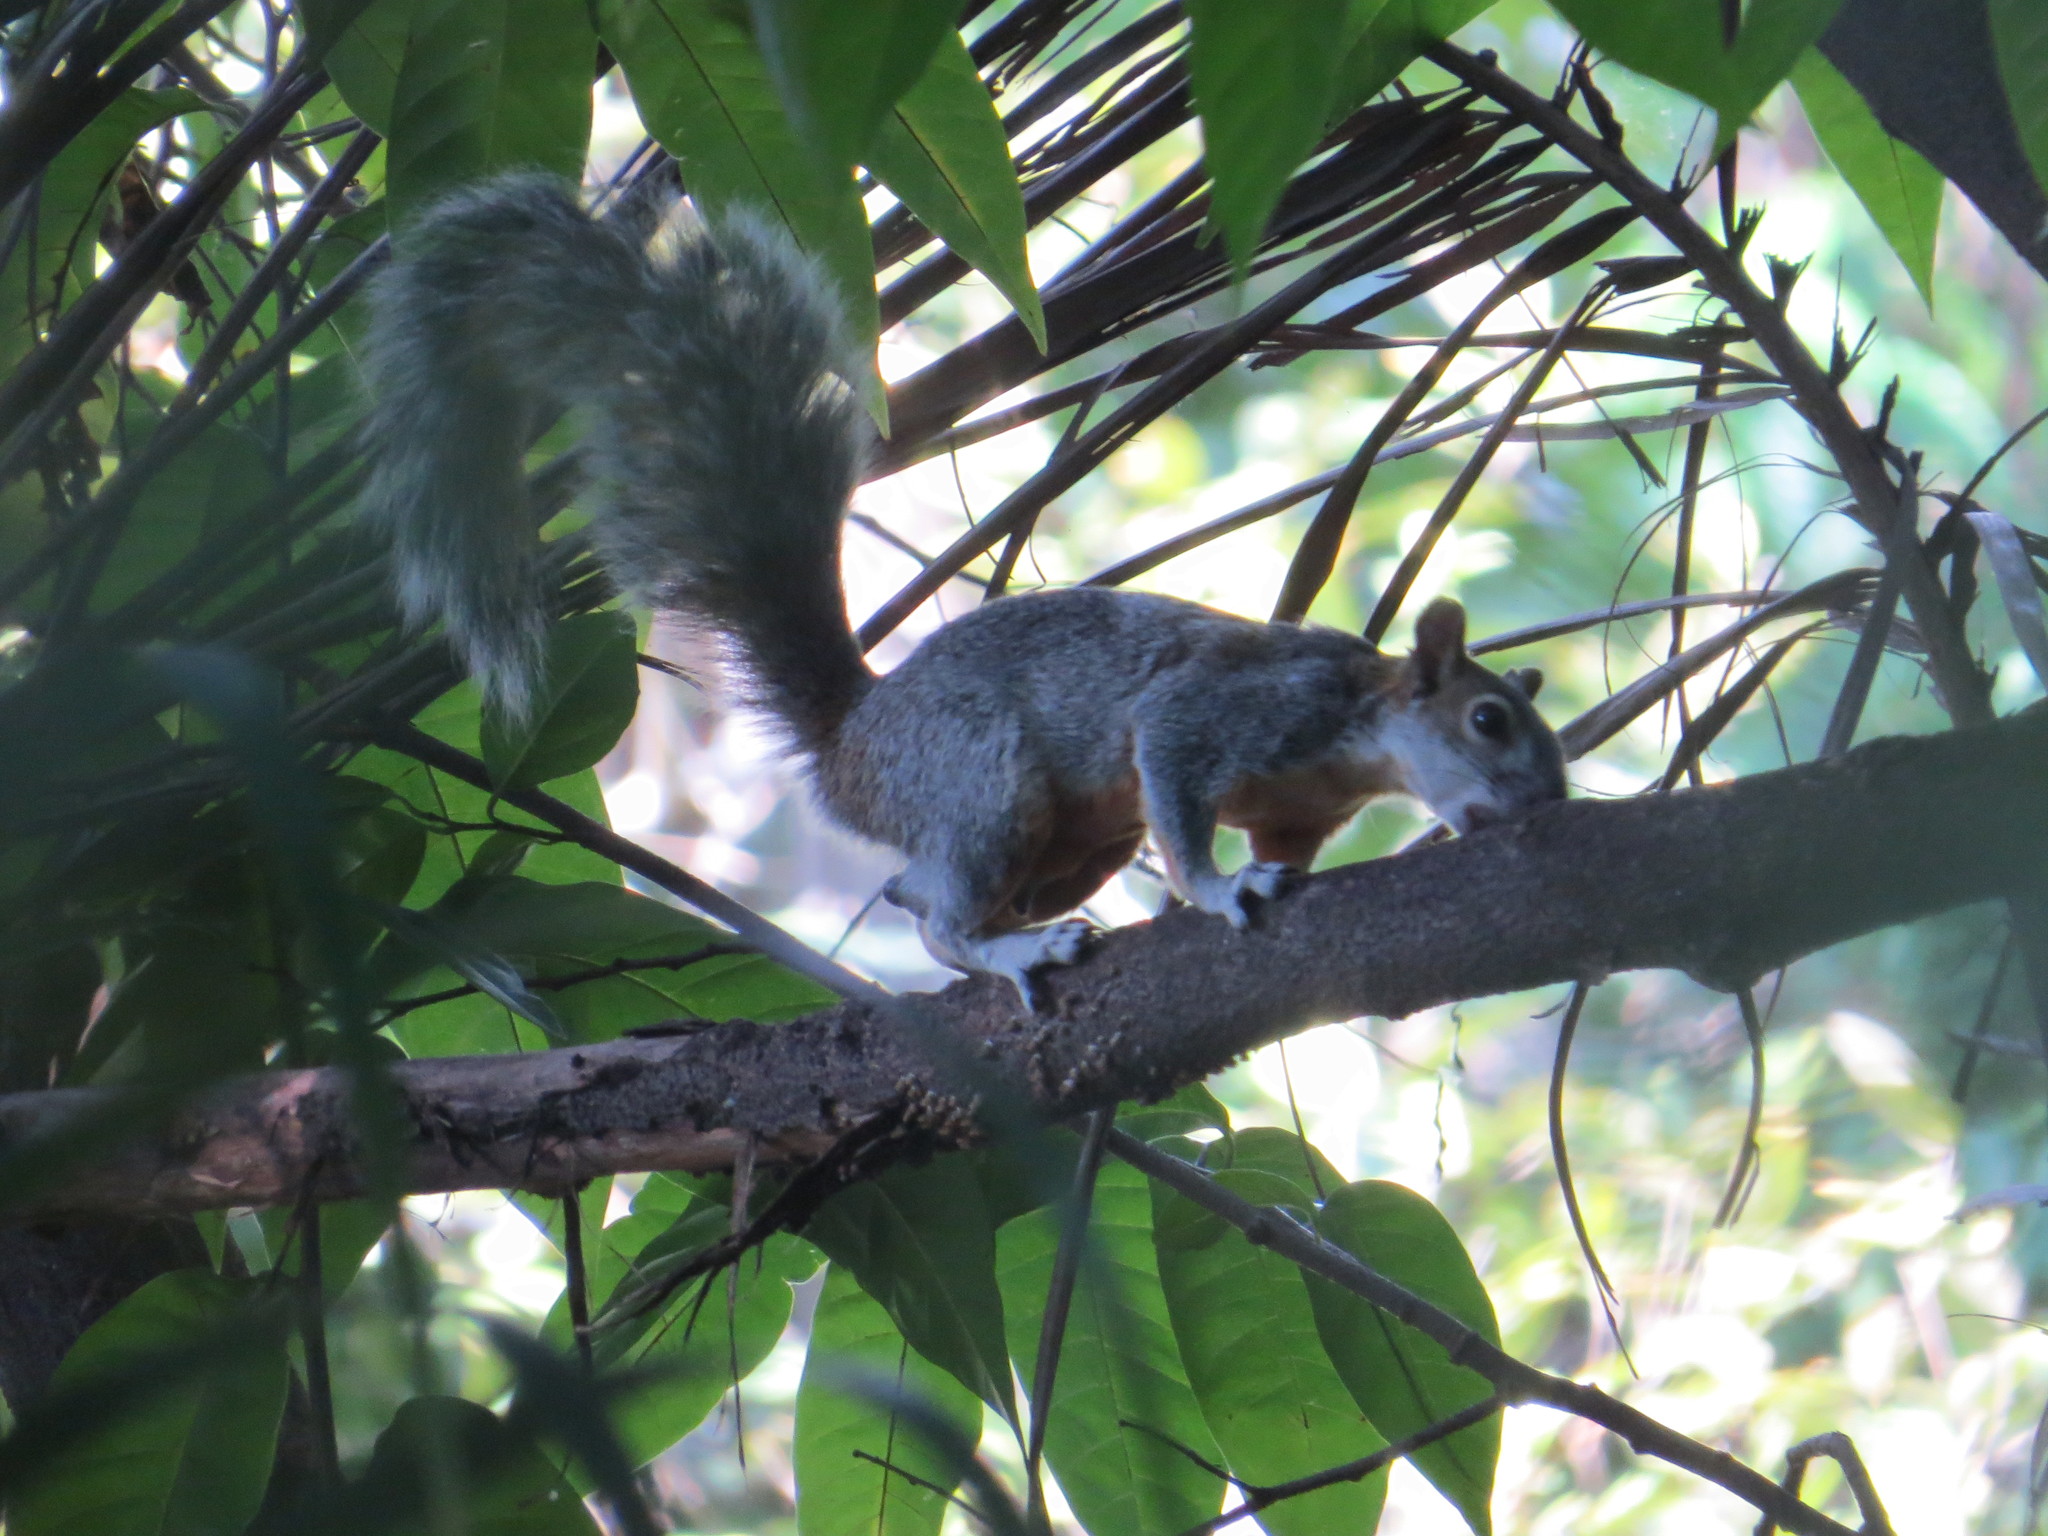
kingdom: Animalia
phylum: Chordata
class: Mammalia
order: Rodentia
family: Sciuridae
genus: Sciurus
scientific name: Sciurus aureogaster
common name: Red-bellied squirrel
